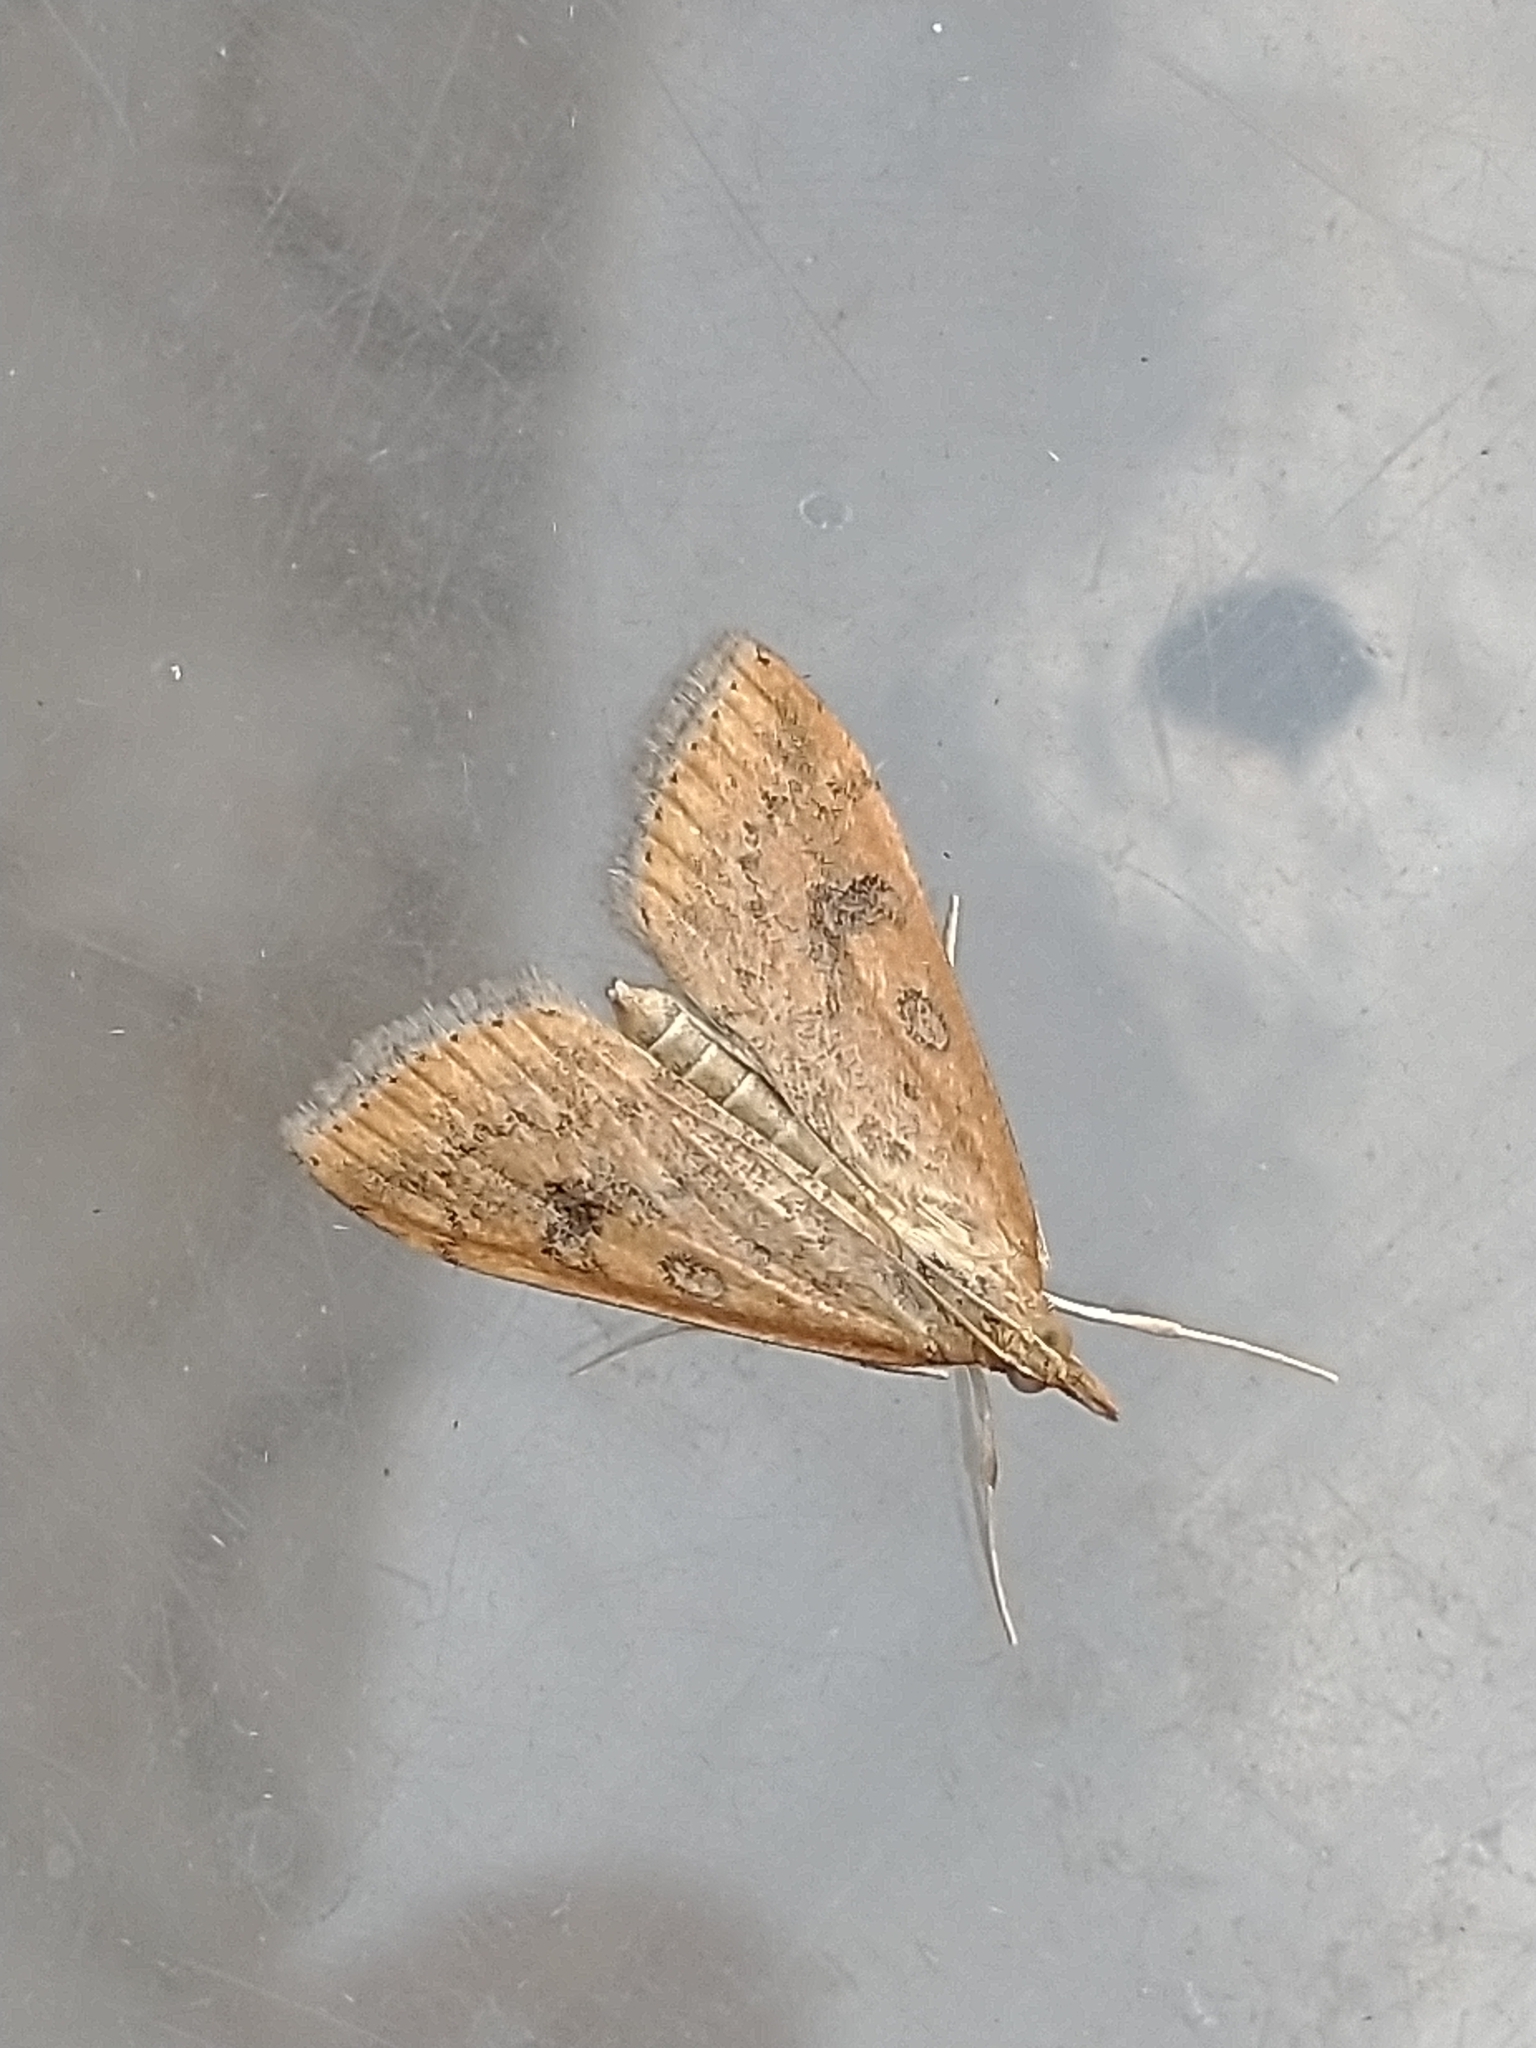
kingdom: Animalia
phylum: Arthropoda
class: Insecta
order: Lepidoptera
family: Crambidae
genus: Udea
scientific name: Udea ferrugalis
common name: Rusty dot
